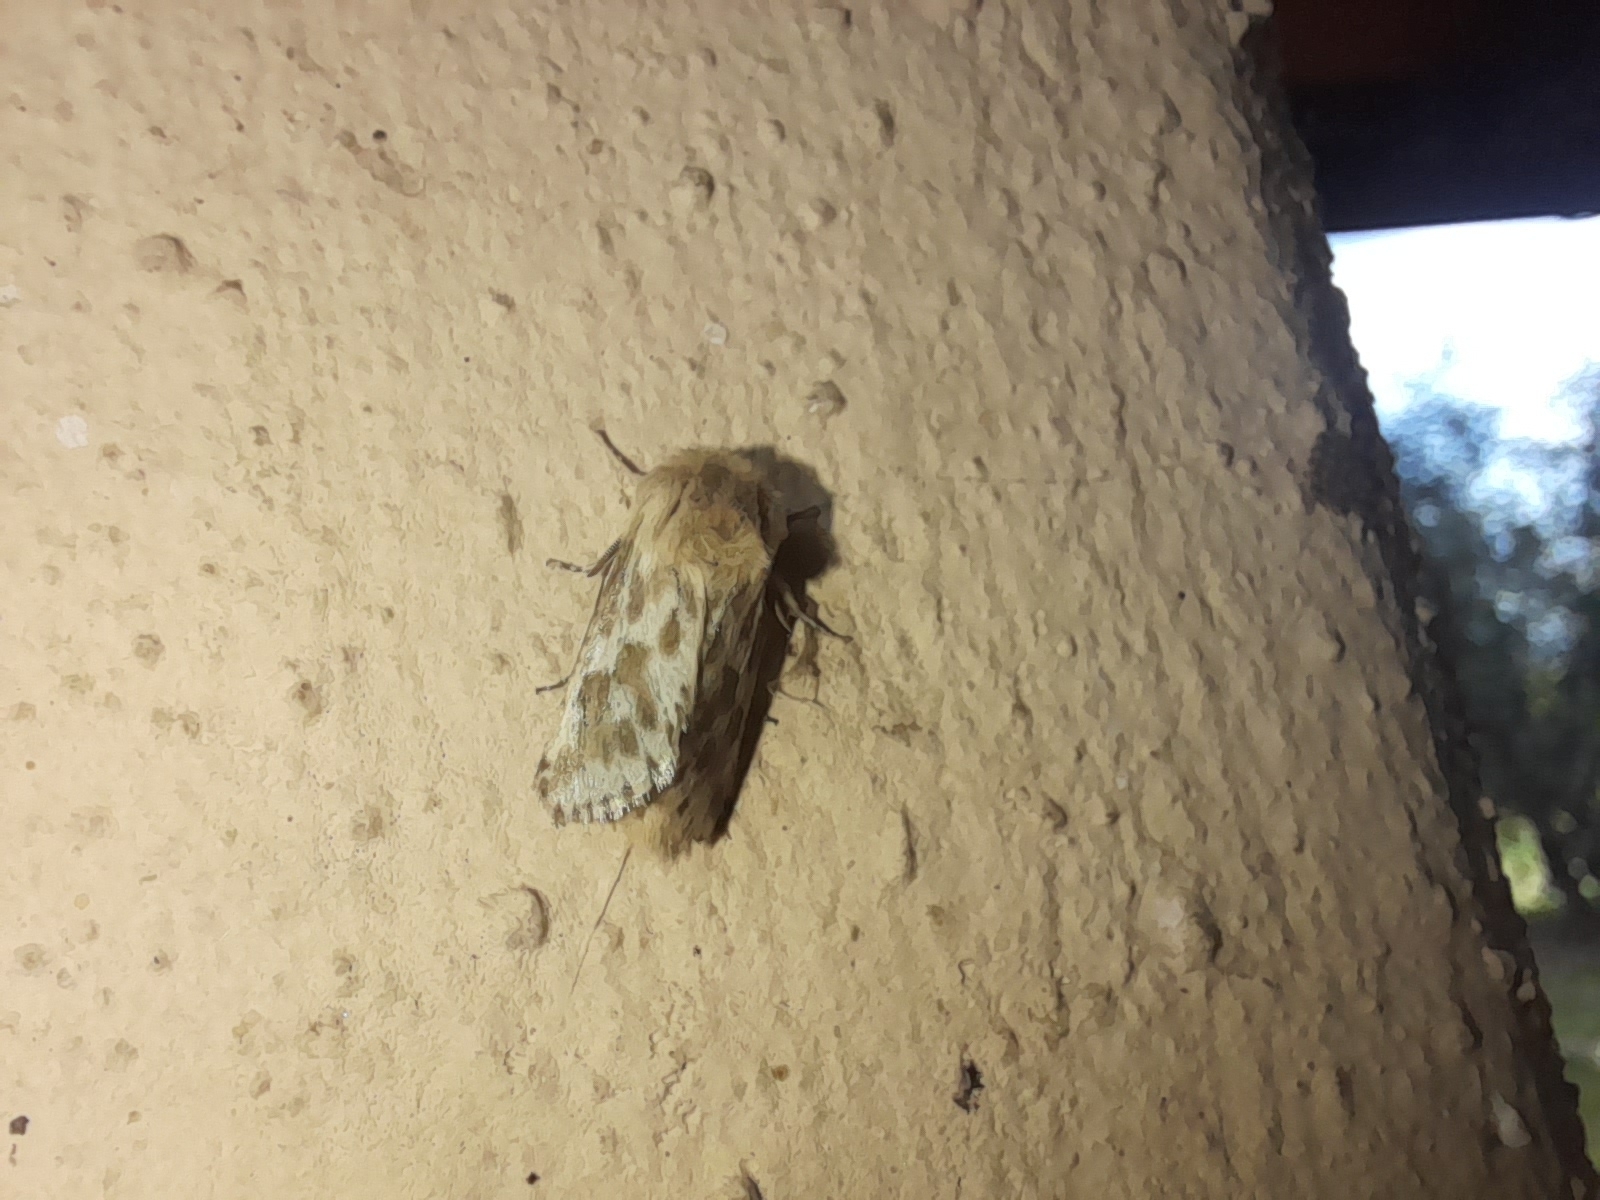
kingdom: Animalia
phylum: Arthropoda
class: Insecta
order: Lepidoptera
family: Cossidae
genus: Dyspessa
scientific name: Dyspessa ulula
